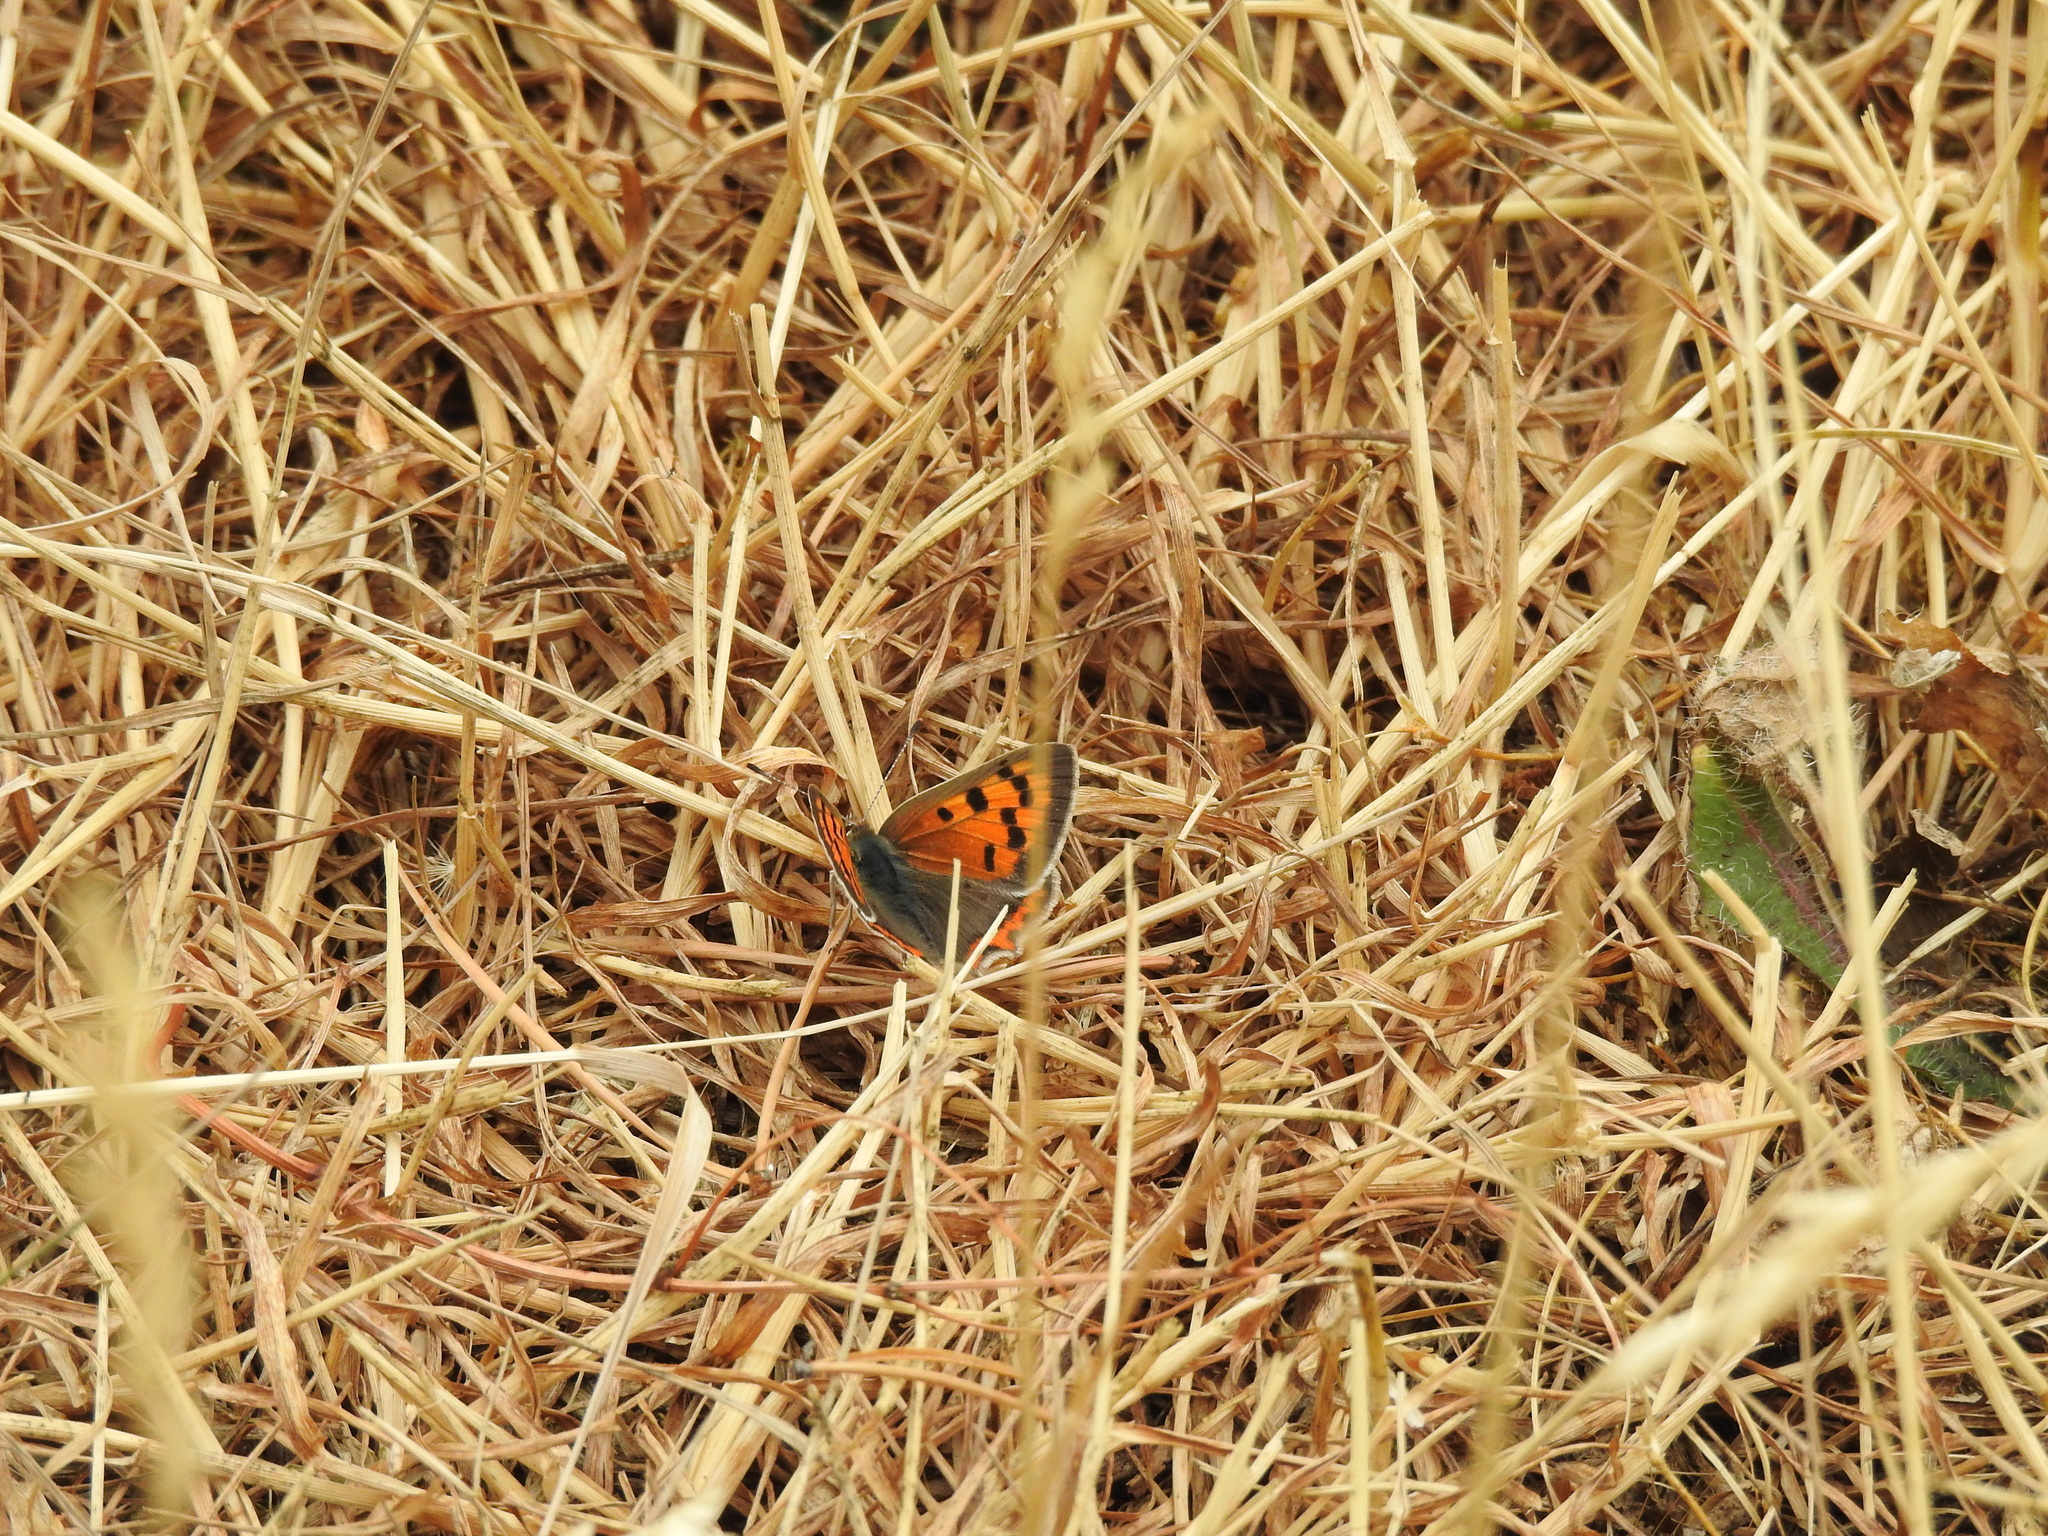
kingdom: Animalia
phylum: Arthropoda
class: Insecta
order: Lepidoptera
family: Lycaenidae
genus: Lycaena
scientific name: Lycaena phlaeas
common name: Small copper
